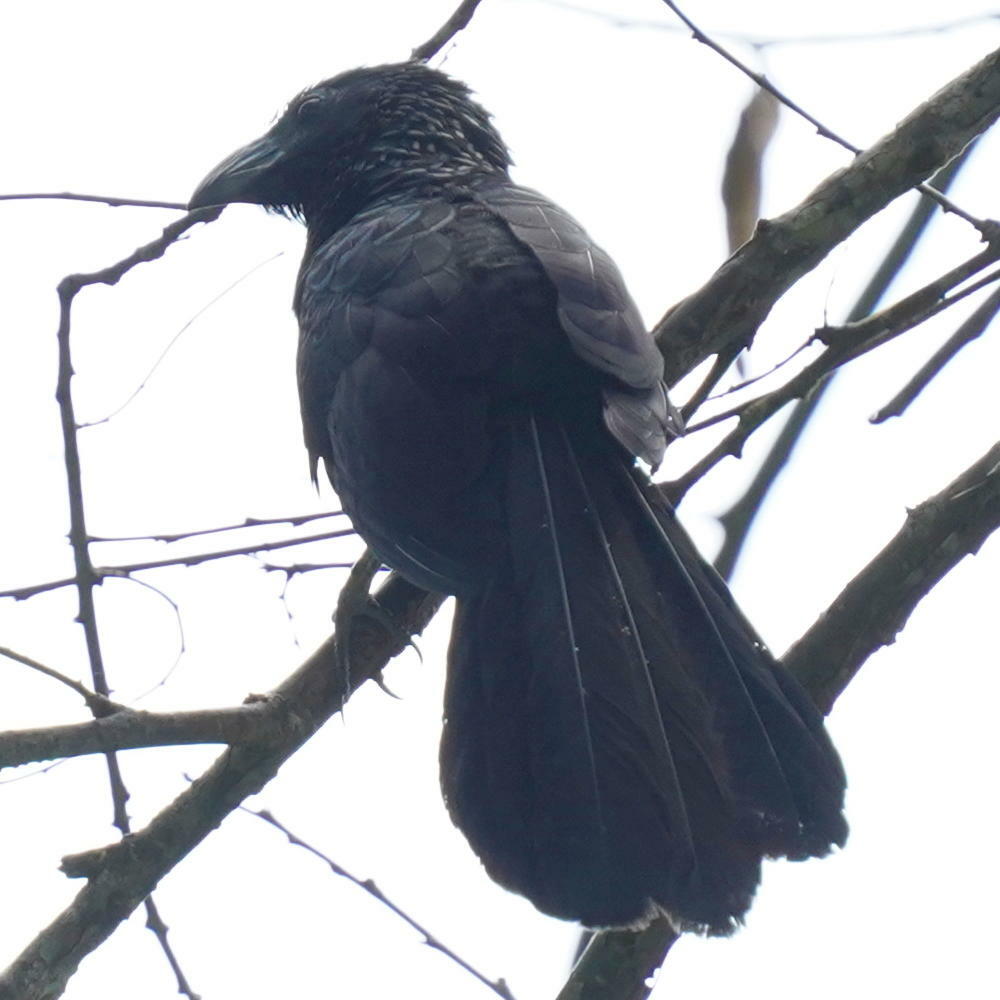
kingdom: Animalia
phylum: Chordata
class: Aves
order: Cuculiformes
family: Cuculidae
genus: Crotophaga
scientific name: Crotophaga sulcirostris
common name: Groove-billed ani
